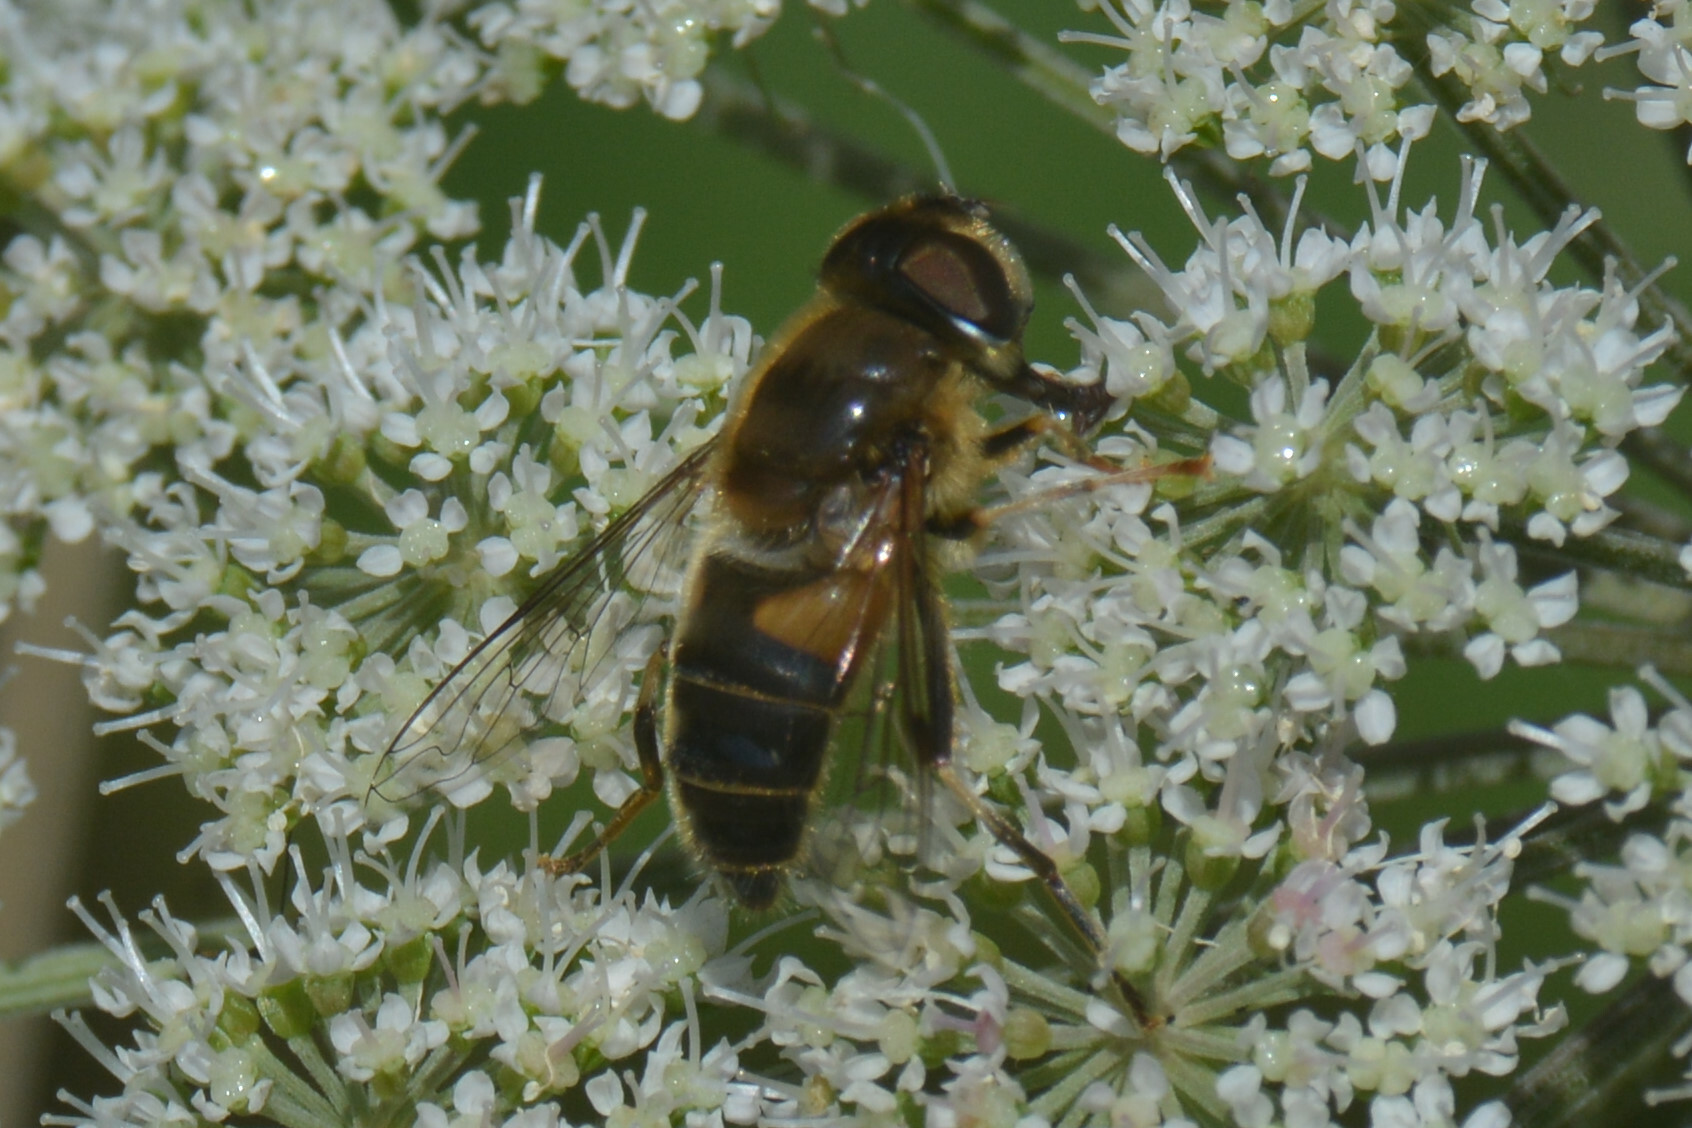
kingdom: Animalia
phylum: Arthropoda
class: Insecta
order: Diptera
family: Syrphidae
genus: Eristalis
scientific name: Eristalis pertinax
